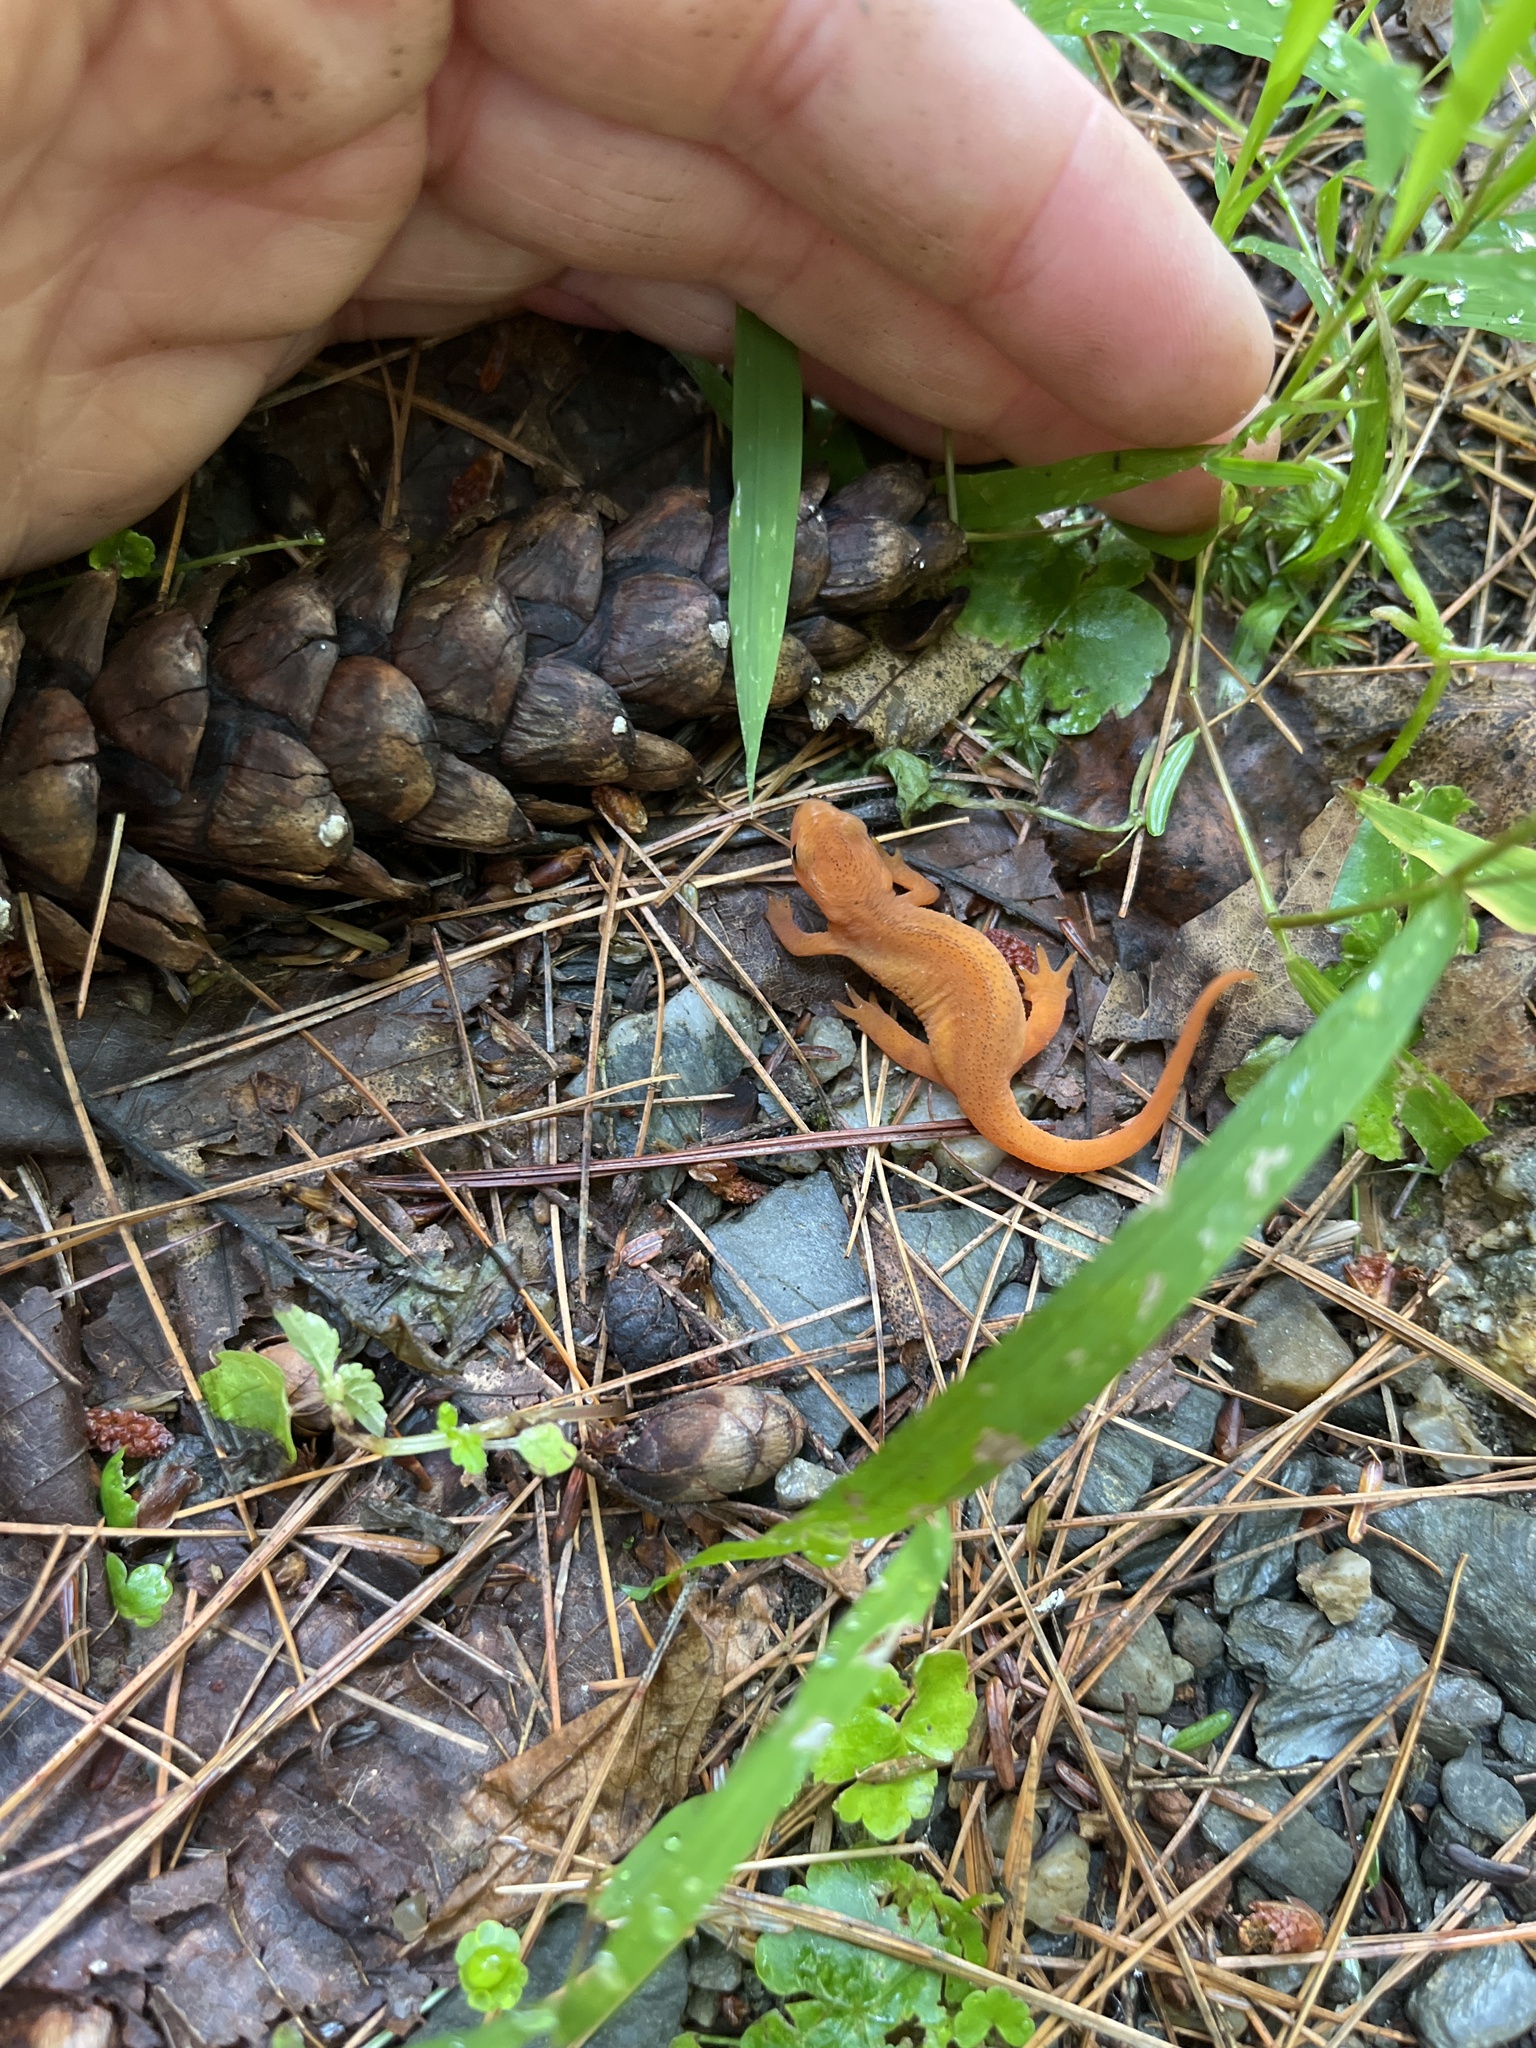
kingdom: Animalia
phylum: Chordata
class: Amphibia
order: Caudata
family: Salamandridae
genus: Notophthalmus
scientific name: Notophthalmus viridescens
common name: Eastern newt
